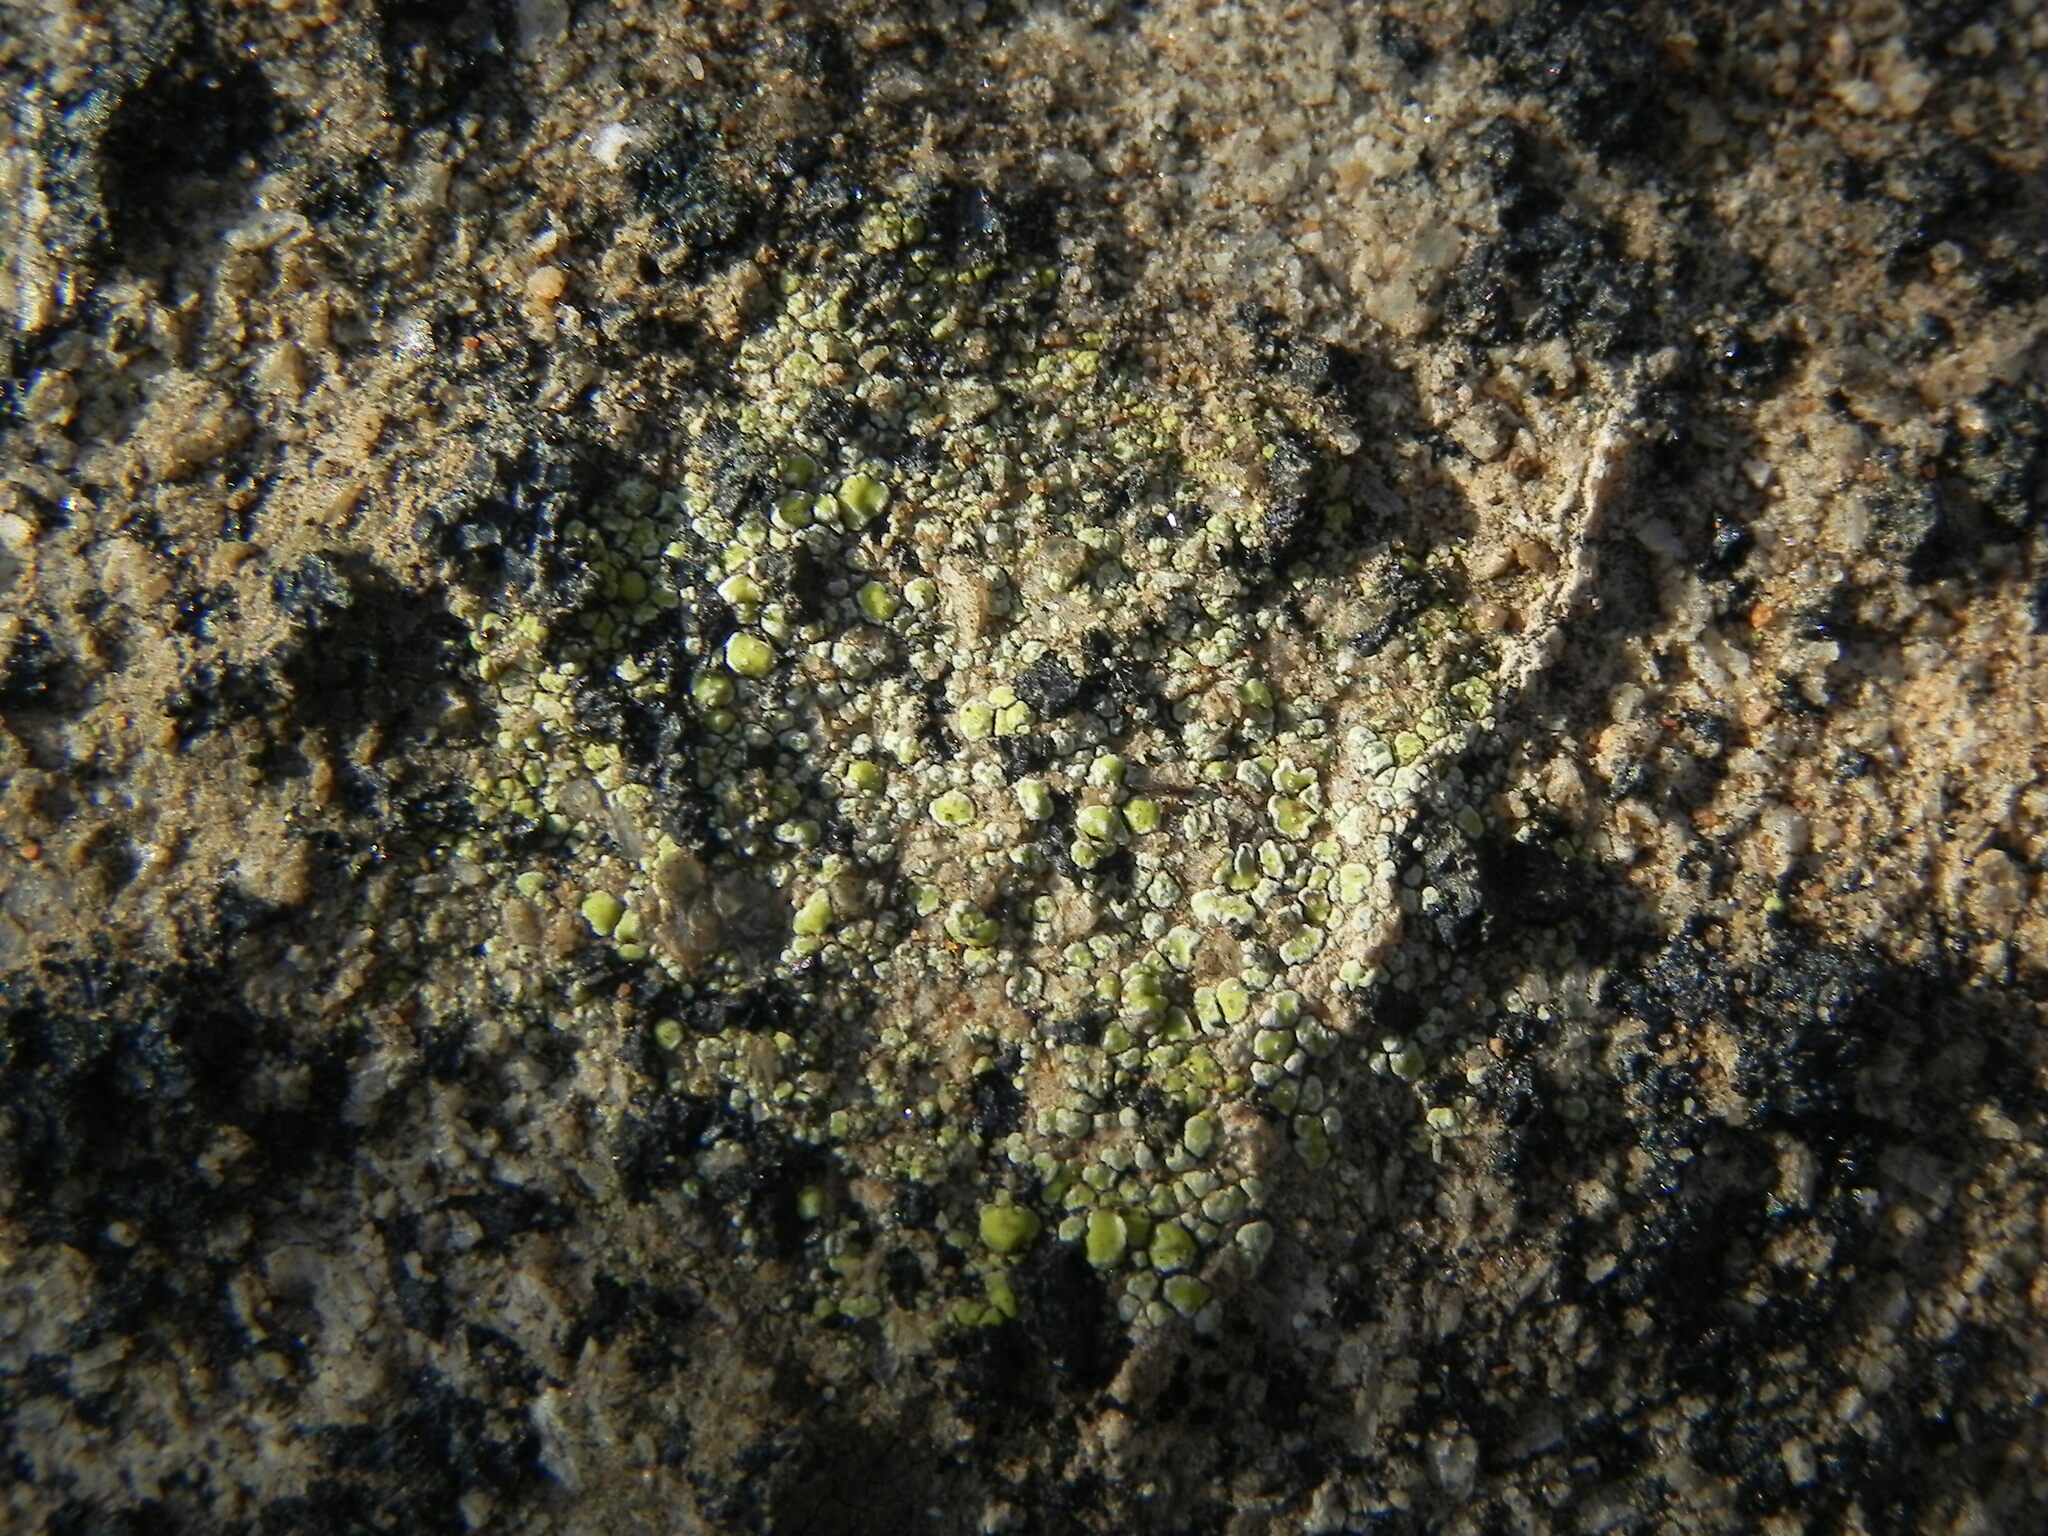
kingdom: Fungi
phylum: Ascomycota
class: Lecanoromycetes
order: Acarosporales
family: Acarosporaceae
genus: Acarospora
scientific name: Acarospora socialis
